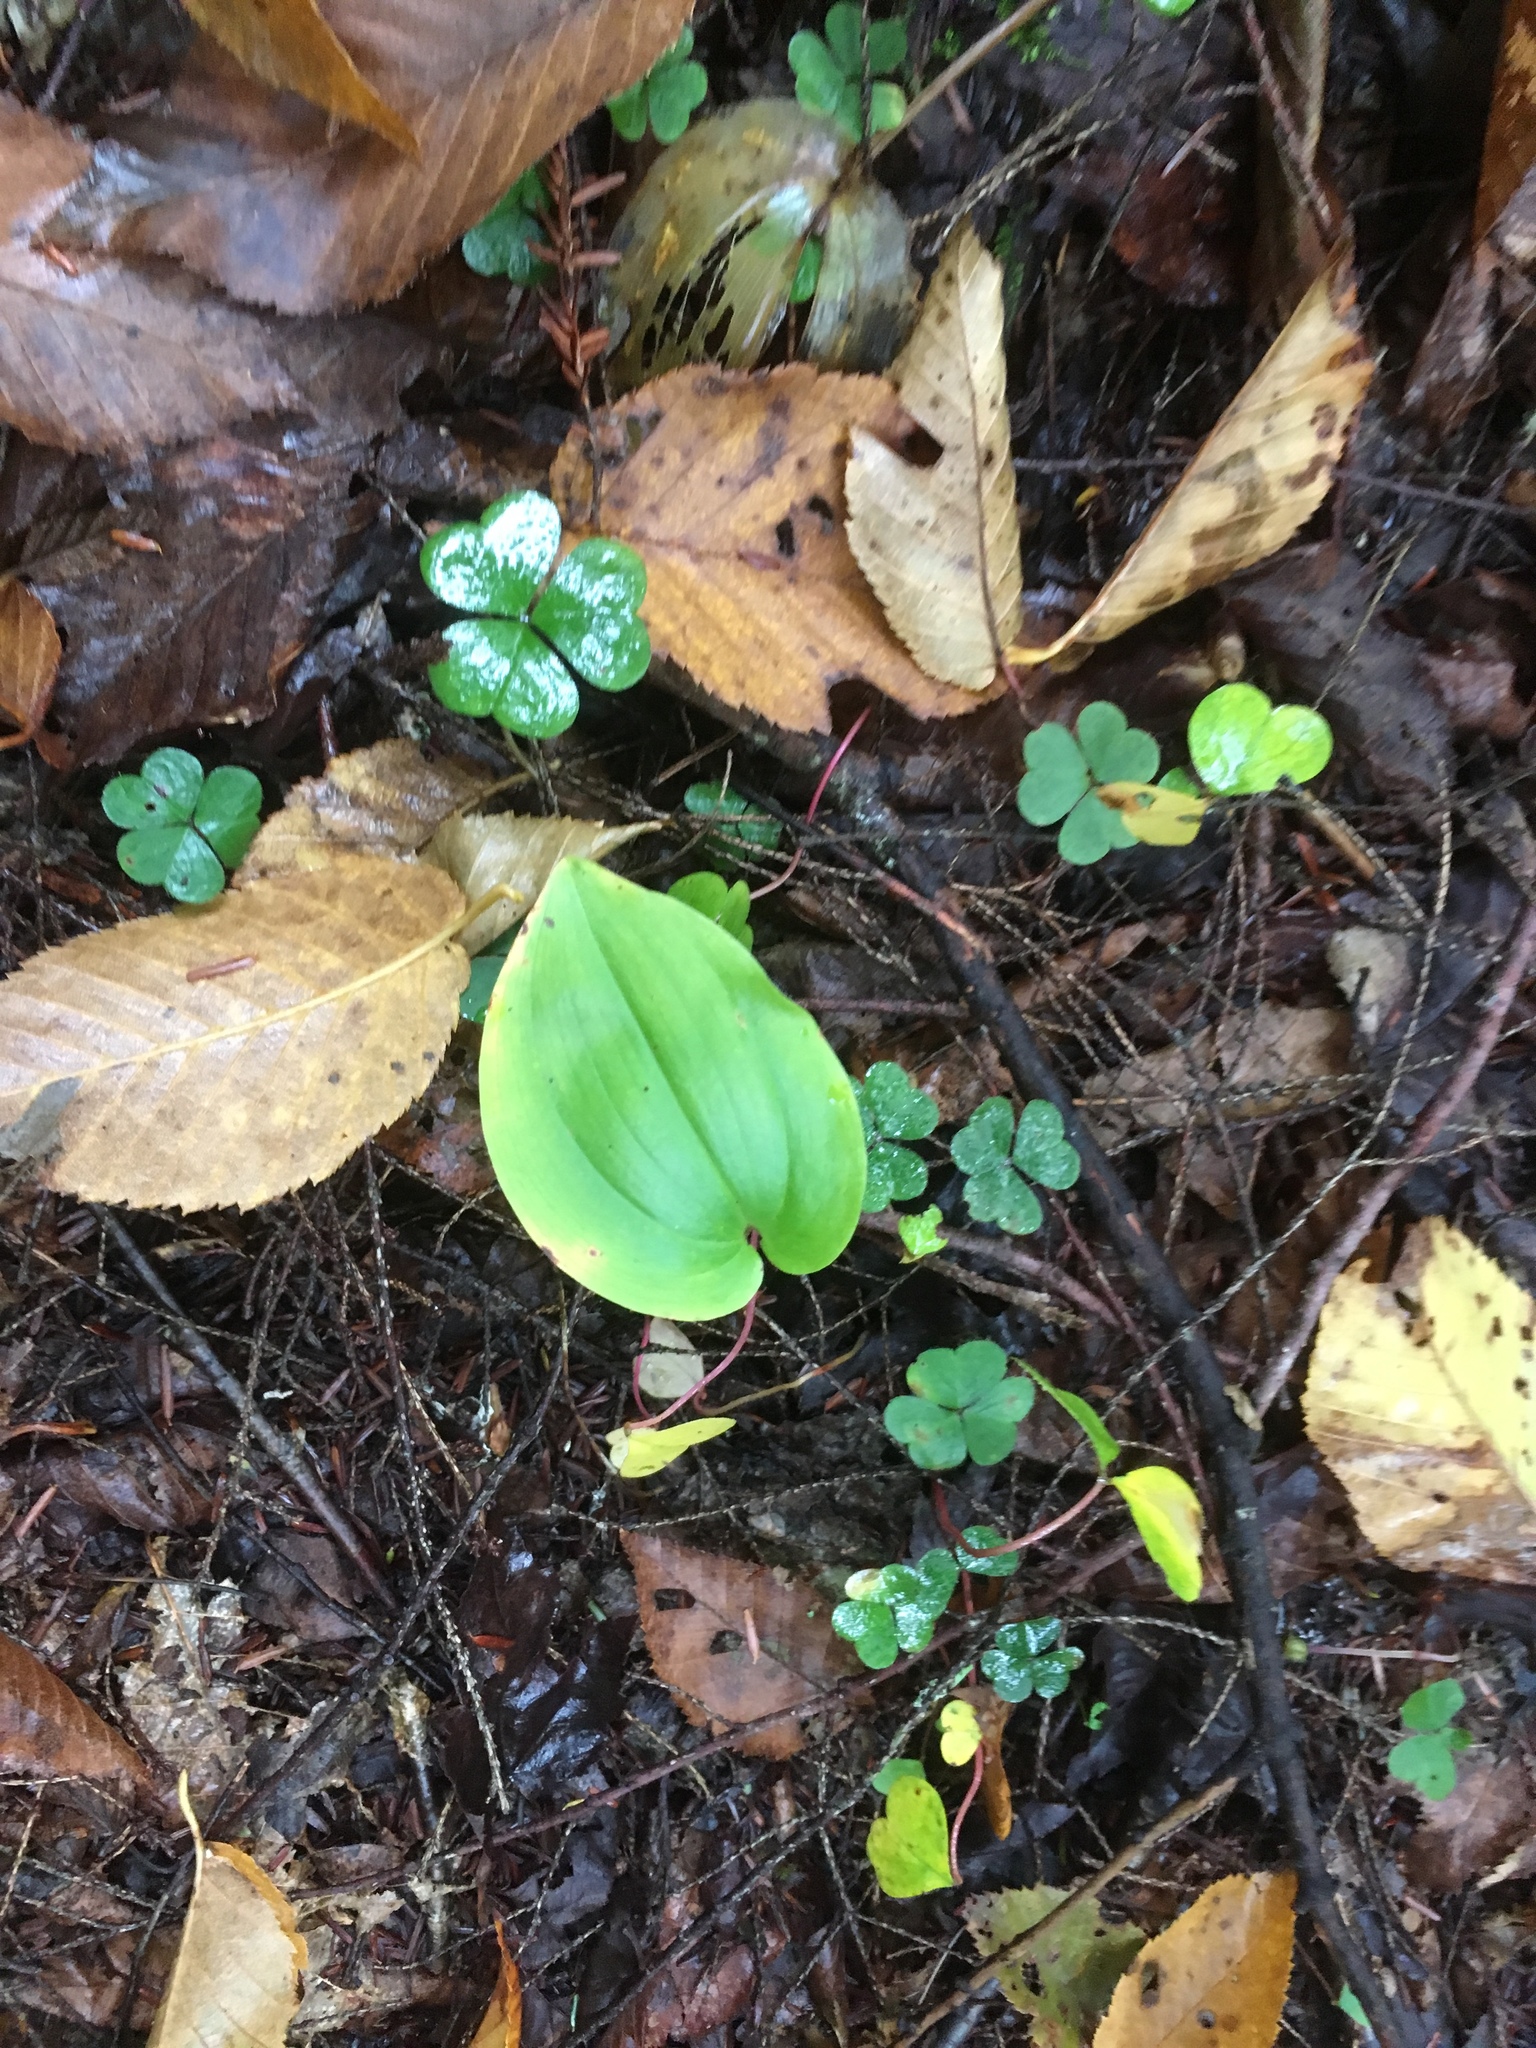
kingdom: Plantae
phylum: Tracheophyta
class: Liliopsida
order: Asparagales
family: Asparagaceae
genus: Maianthemum
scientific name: Maianthemum canadense
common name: False lily-of-the-valley
